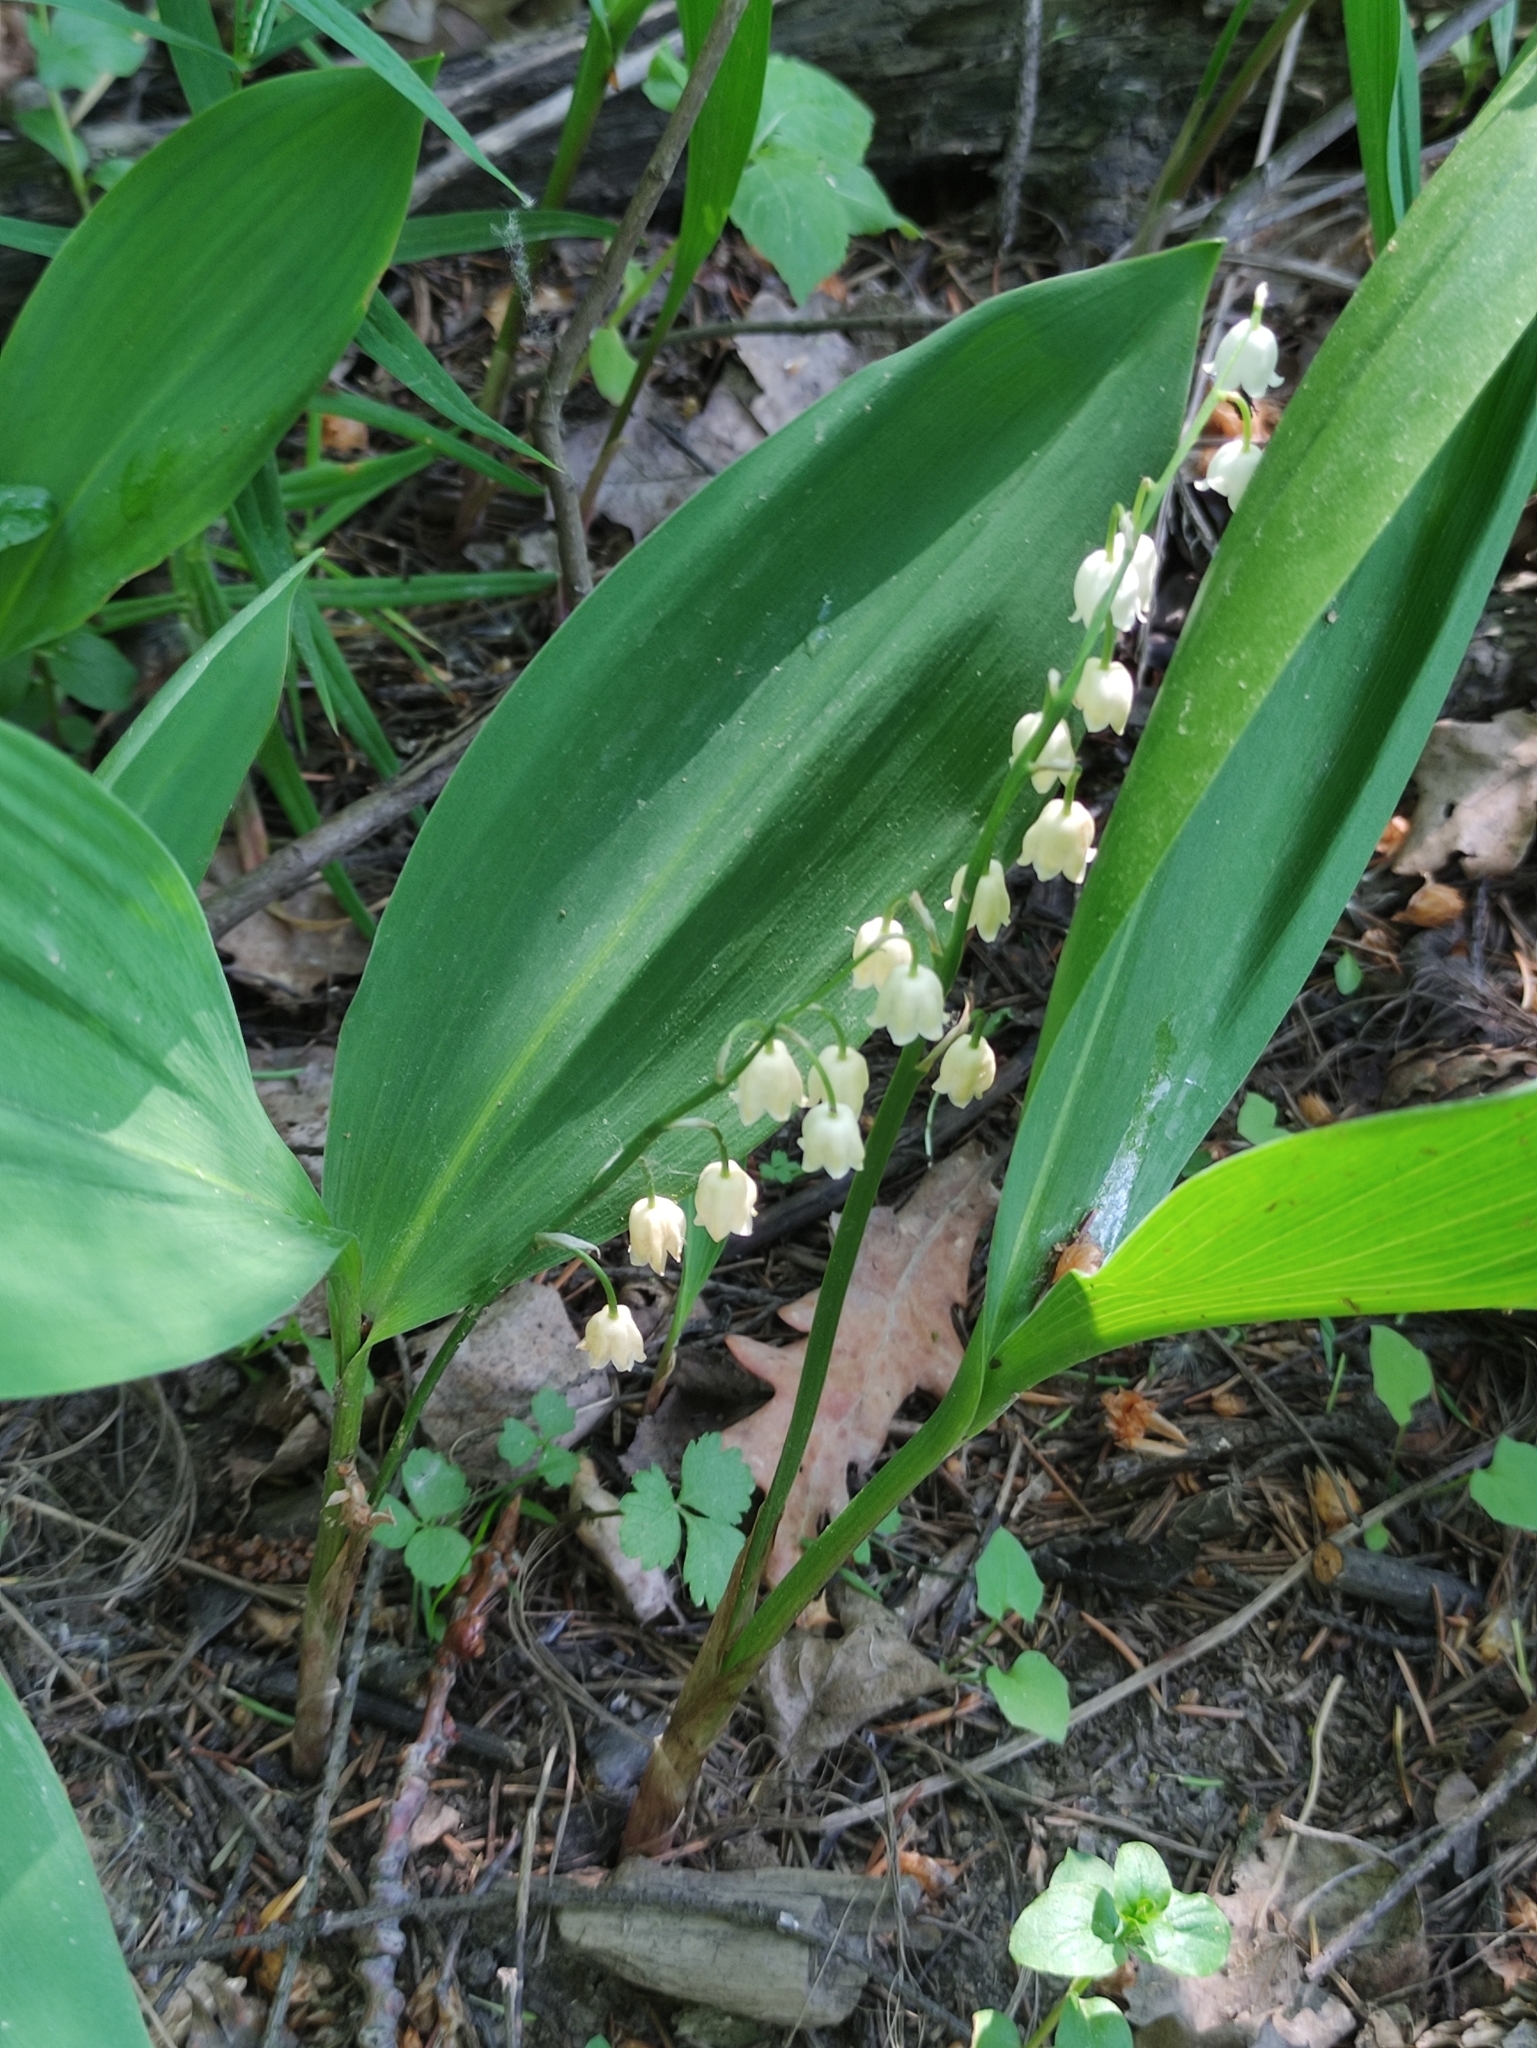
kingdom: Plantae
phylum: Tracheophyta
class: Liliopsida
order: Asparagales
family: Asparagaceae
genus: Convallaria
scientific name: Convallaria majalis
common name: Lily-of-the-valley
